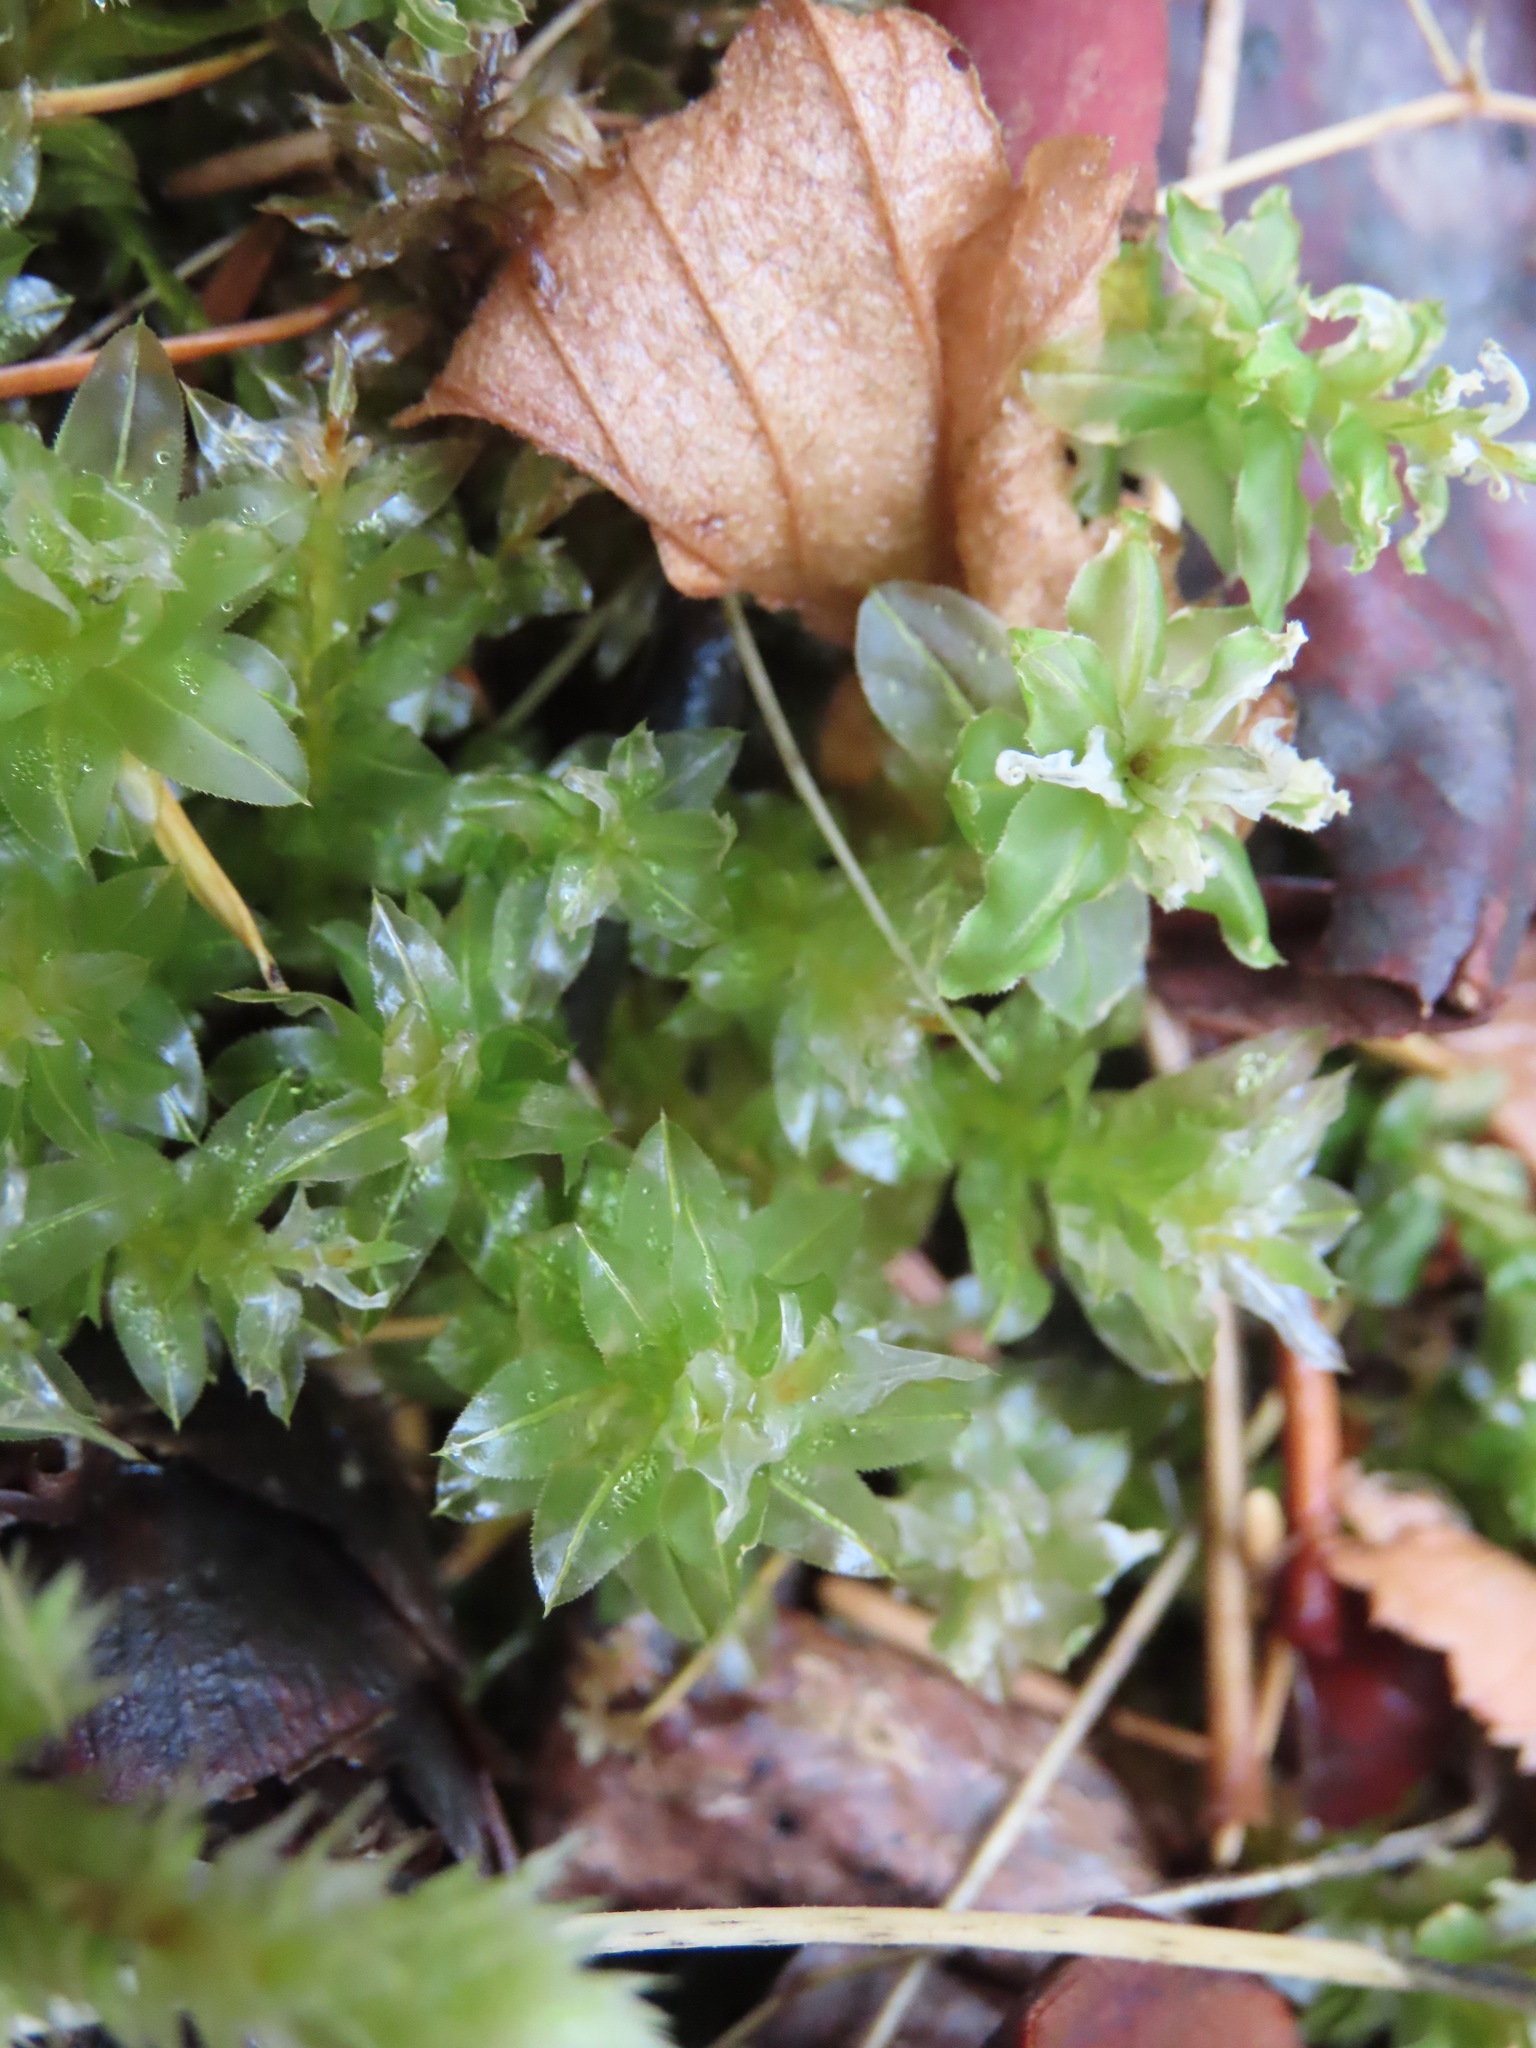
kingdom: Plantae
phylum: Bryophyta
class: Bryopsida
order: Bryales
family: Mniaceae
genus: Plagiomnium
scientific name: Plagiomnium insigne
